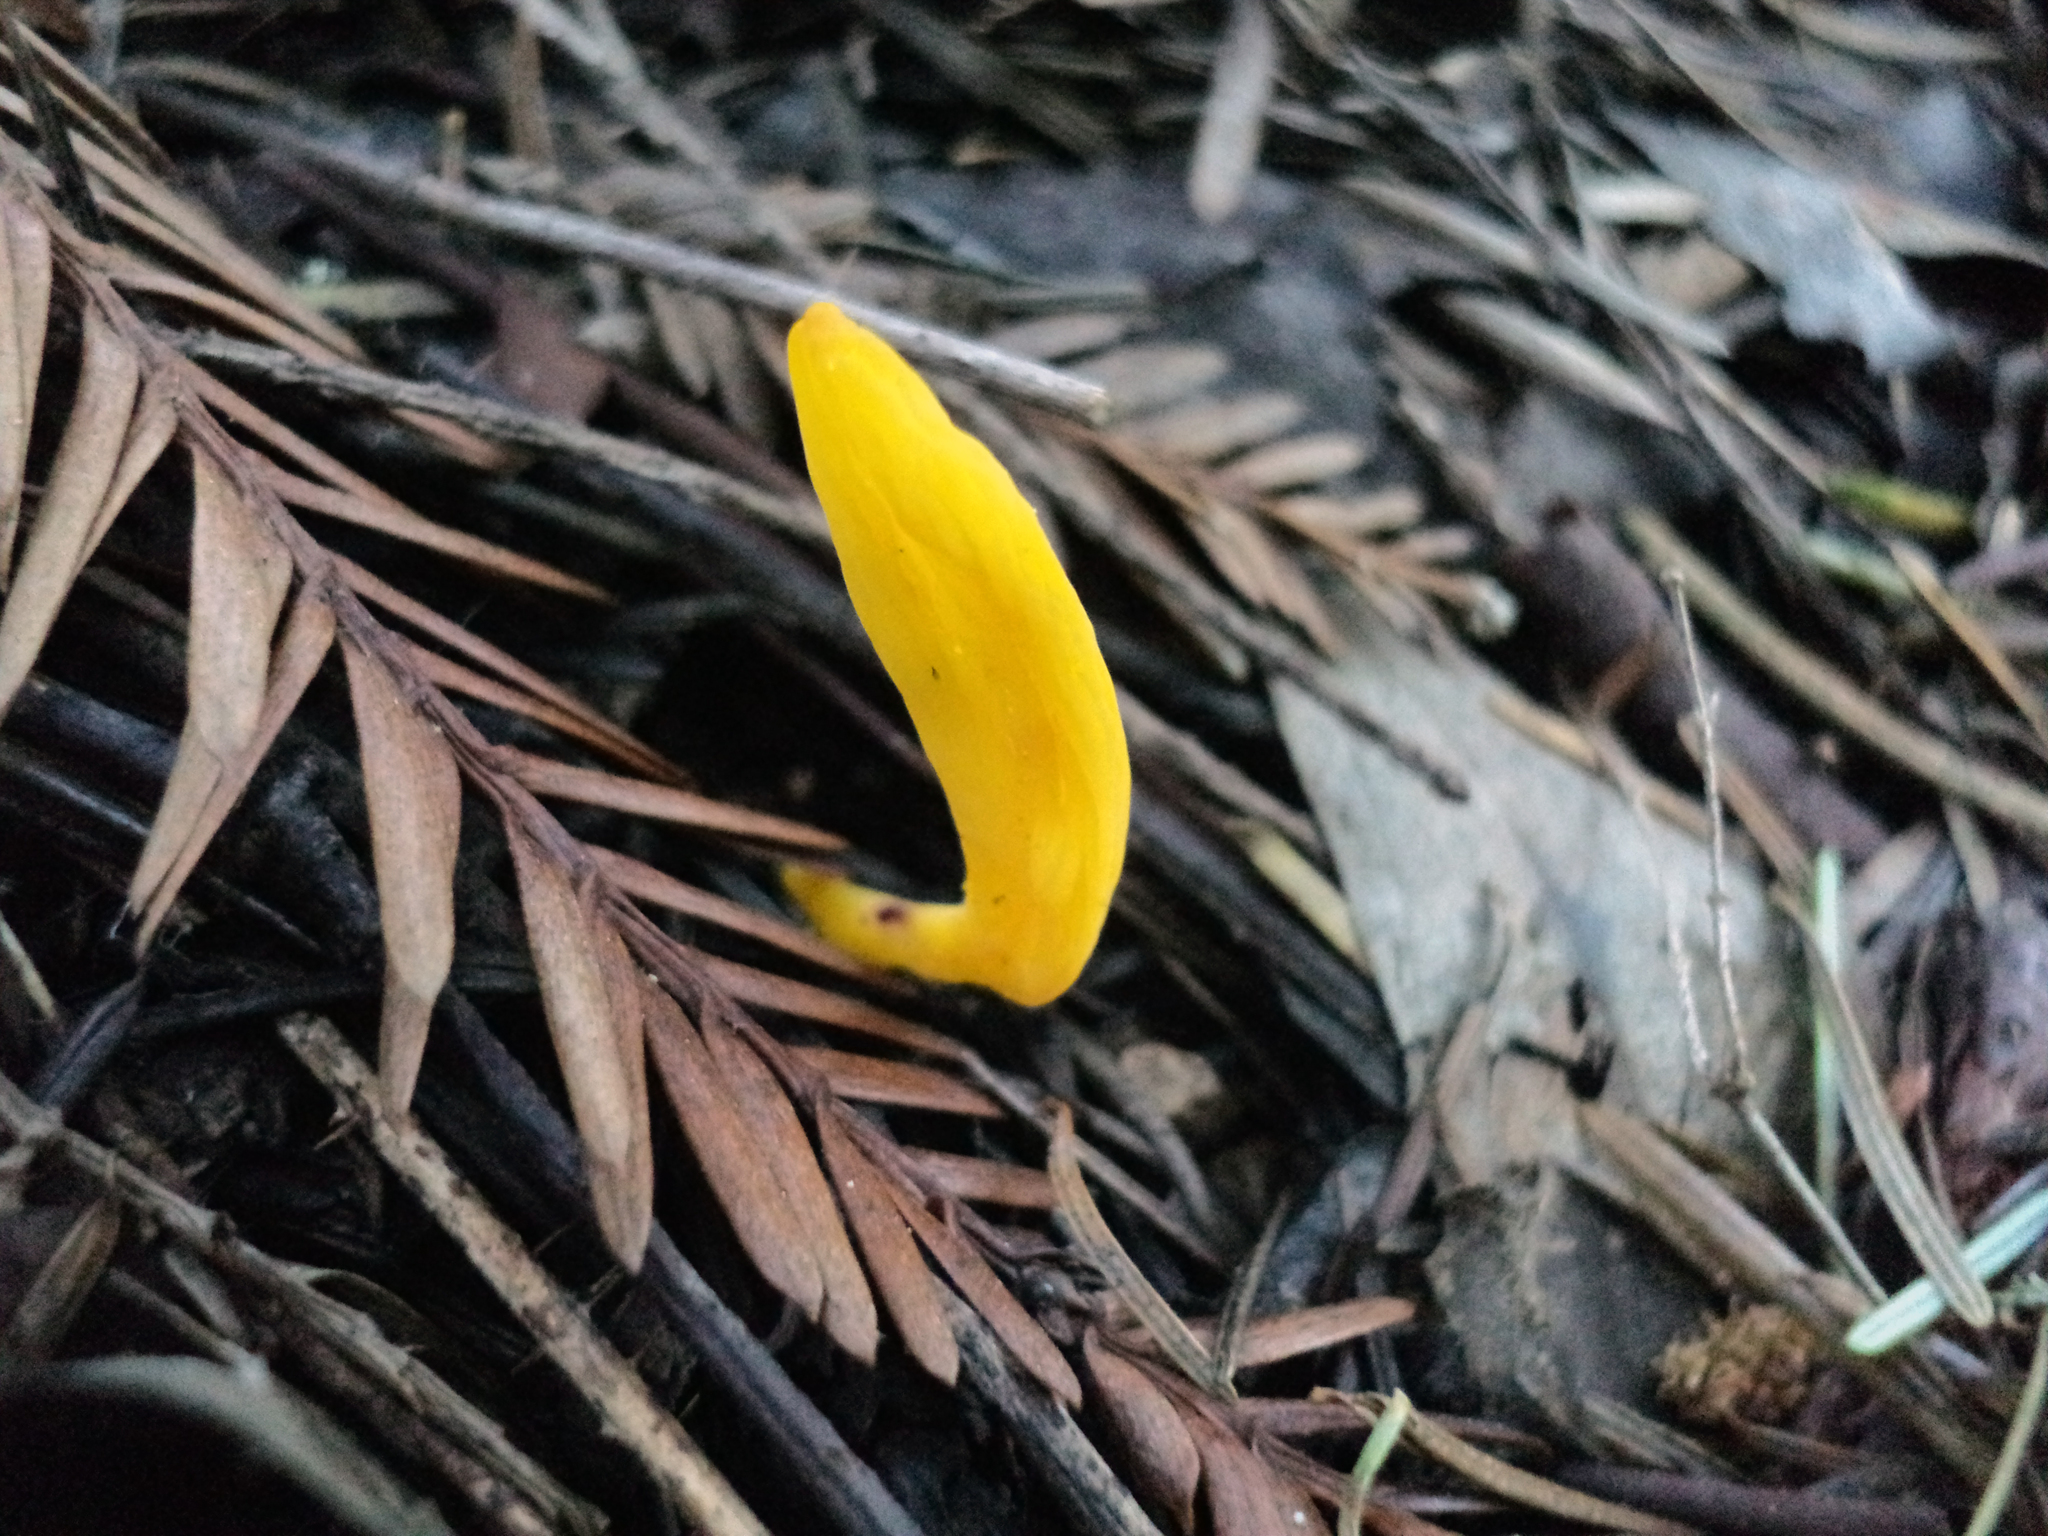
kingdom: Fungi
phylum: Basidiomycota
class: Agaricomycetes
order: Agaricales
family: Clavariaceae
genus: Clavulinopsis
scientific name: Clavulinopsis fusiformis
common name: Golden spindles
